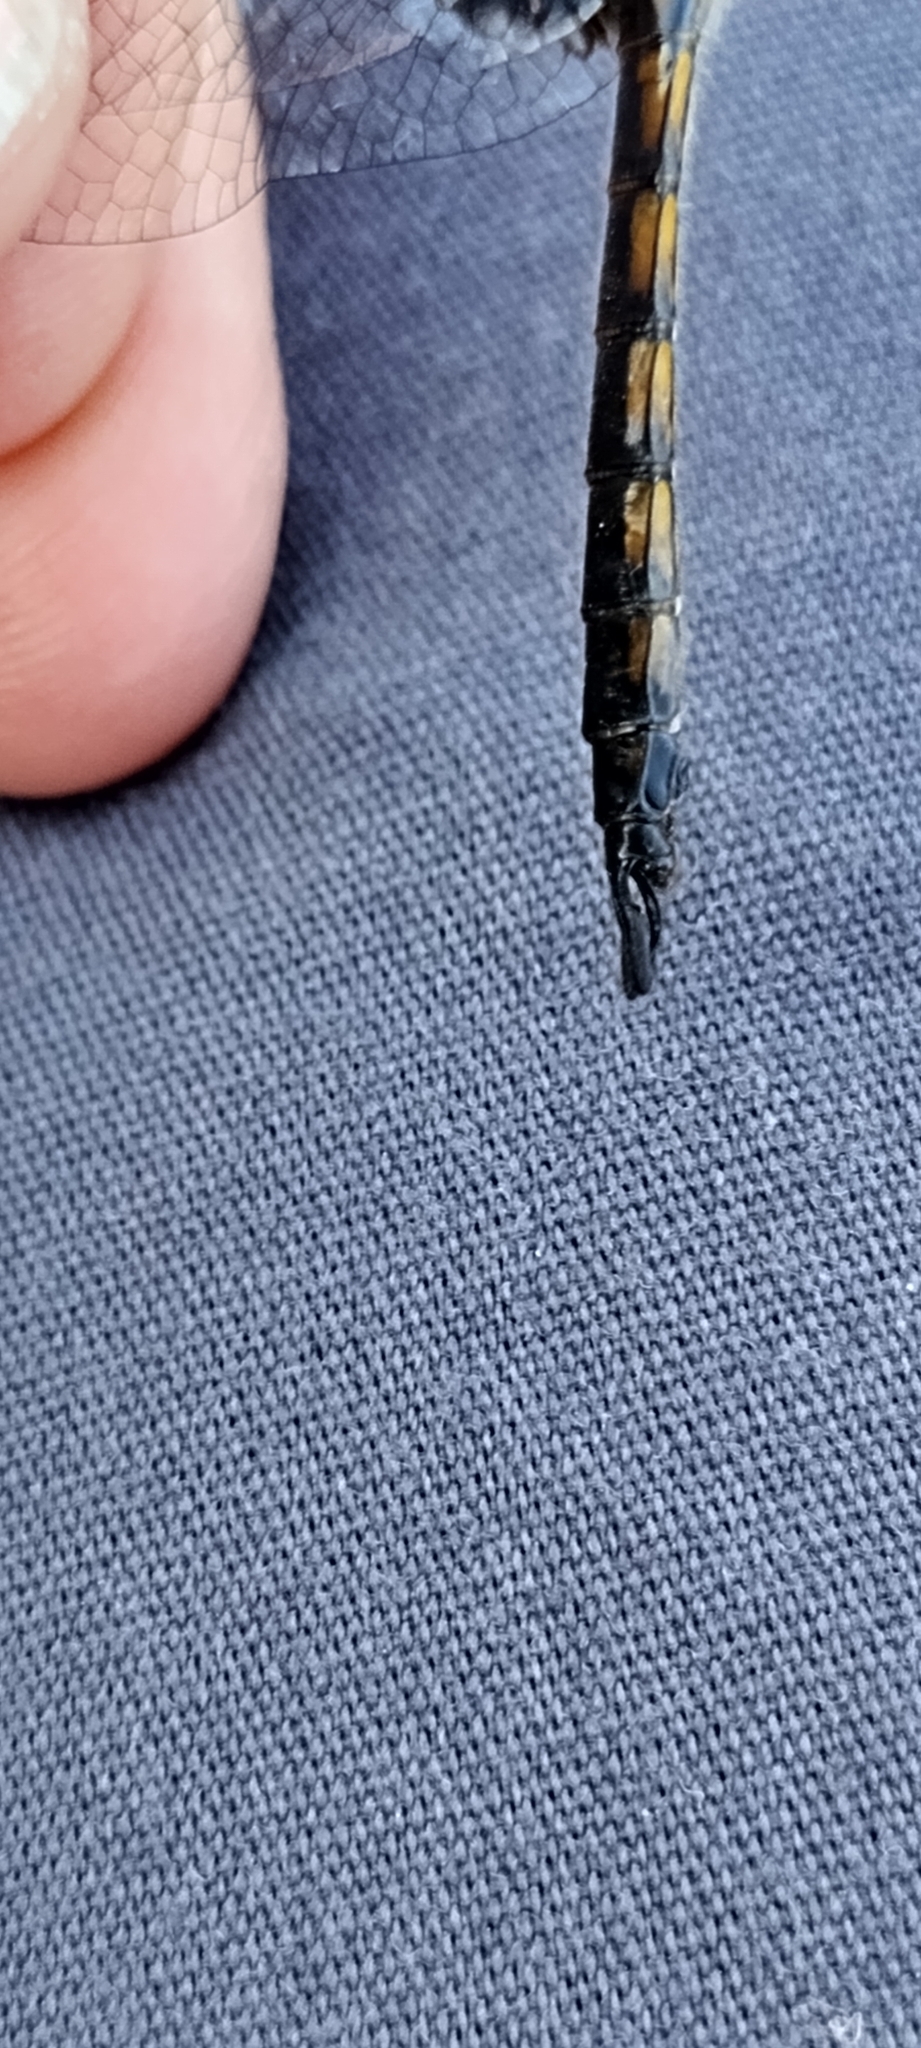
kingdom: Animalia
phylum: Arthropoda
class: Insecta
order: Odonata
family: Corduliidae
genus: Epitheca
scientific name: Epitheca cynosura
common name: Common baskettail
